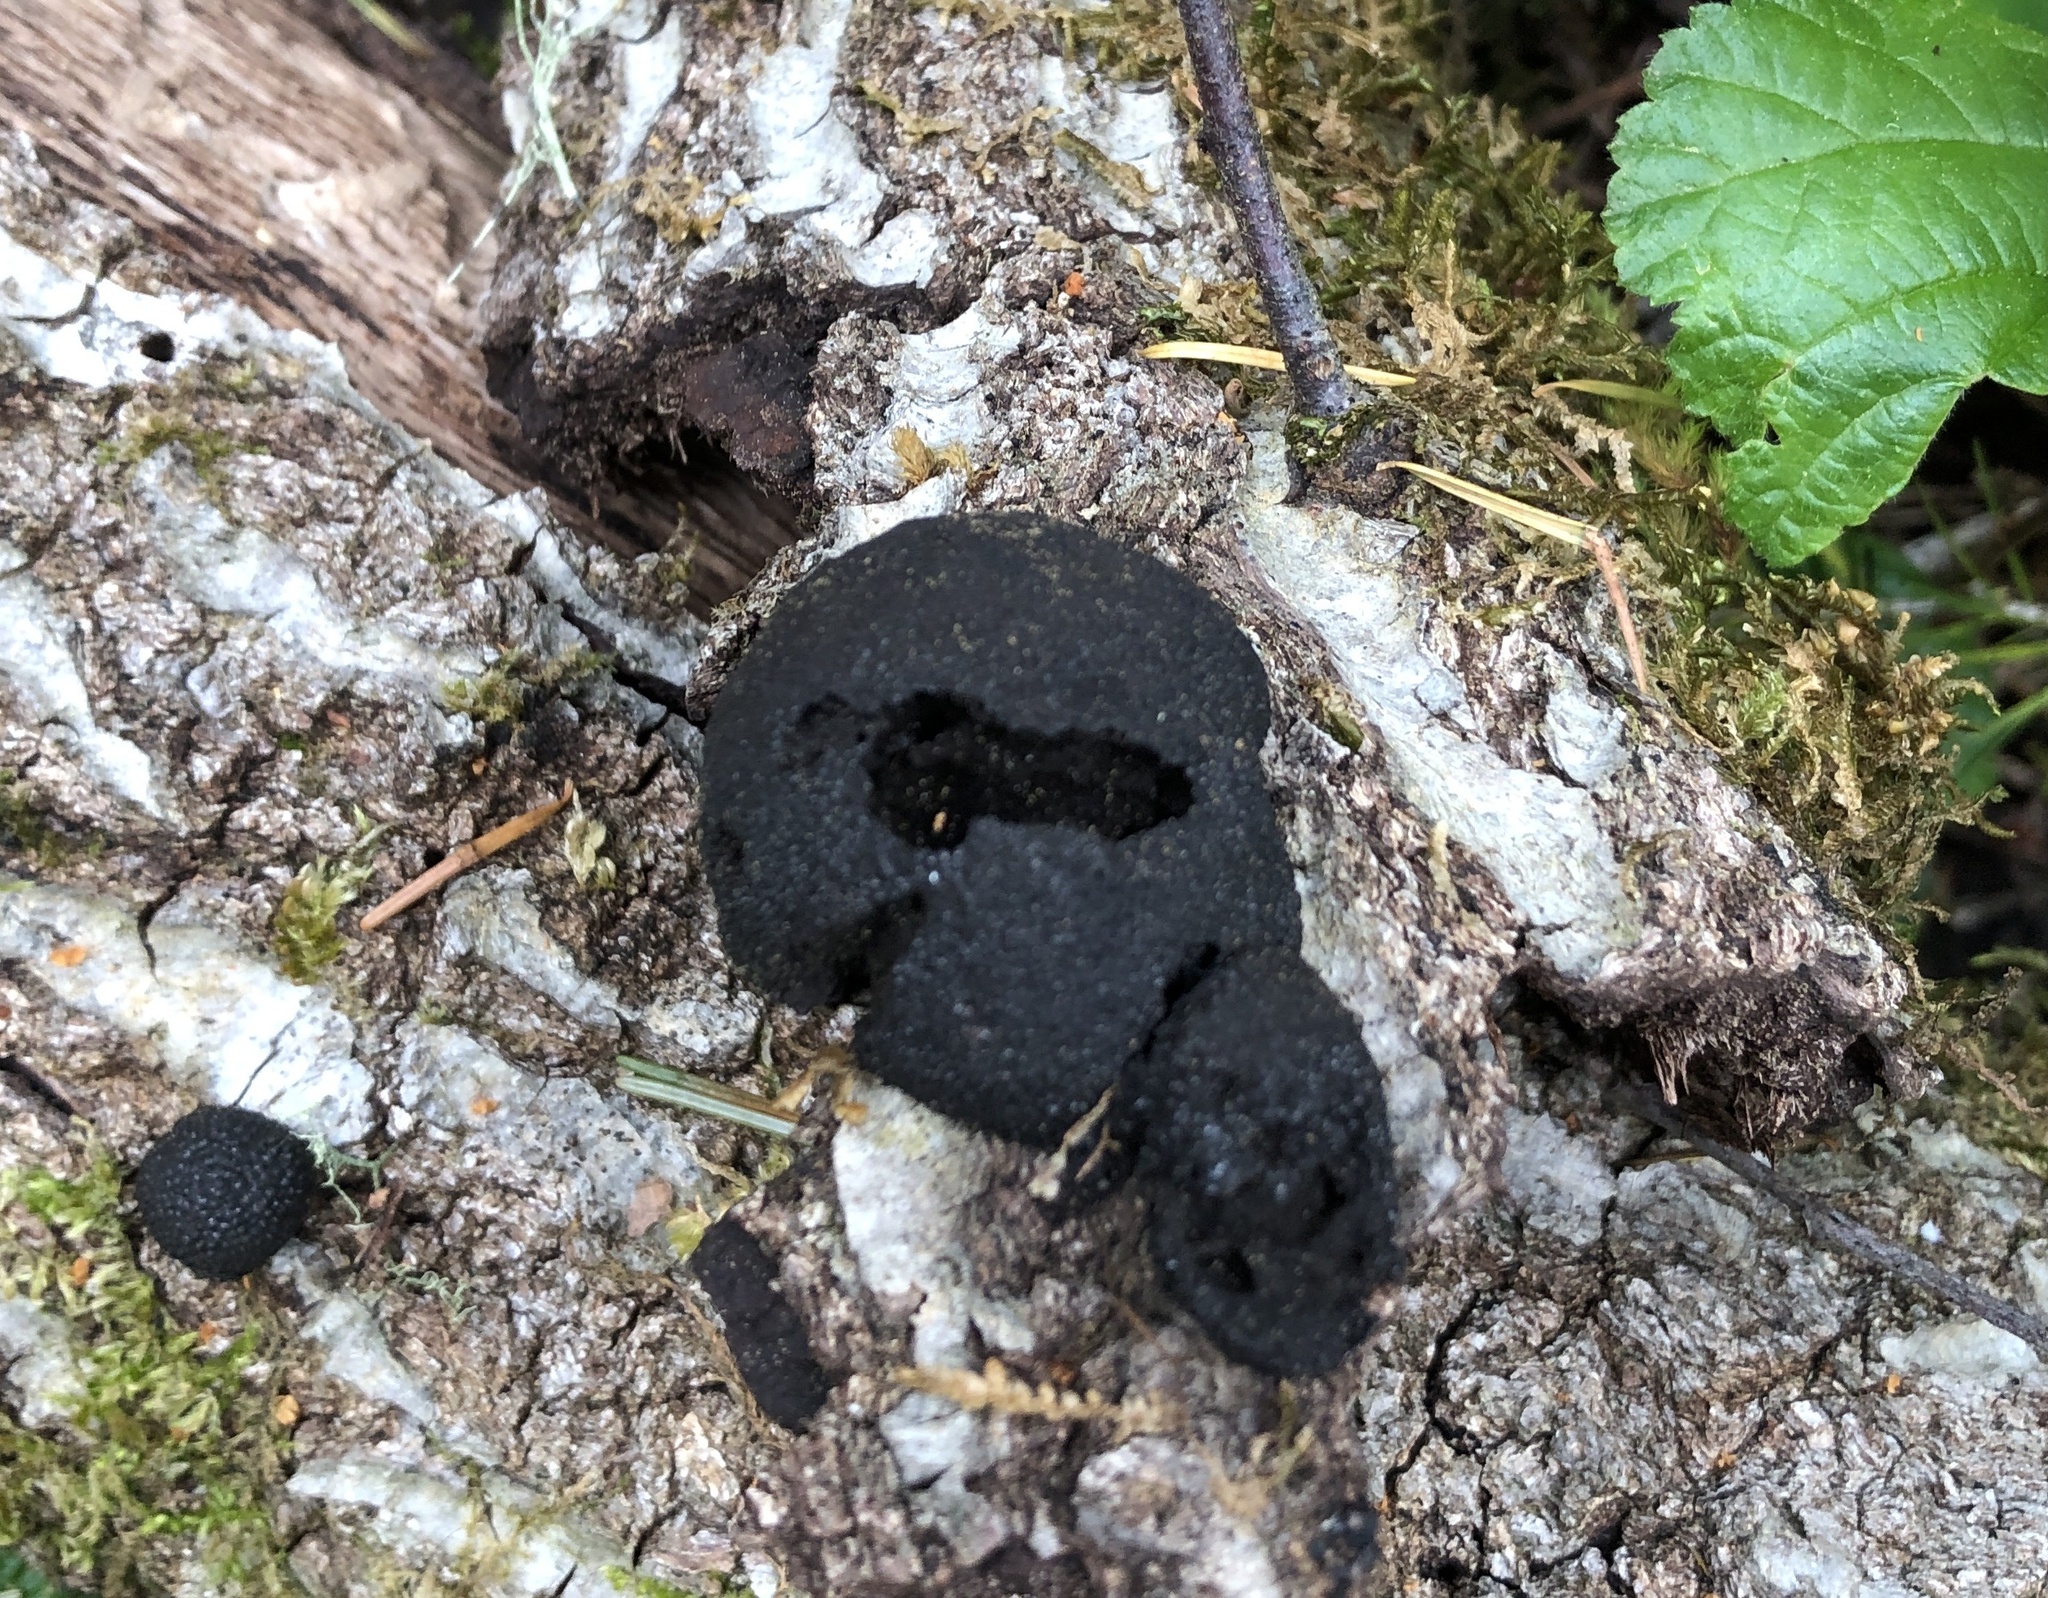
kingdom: Fungi
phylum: Ascomycota
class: Sordariomycetes
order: Xylariales
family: Hypoxylaceae
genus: Annulohypoxylon
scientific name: Annulohypoxylon thouarsianum
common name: Cramp balls
